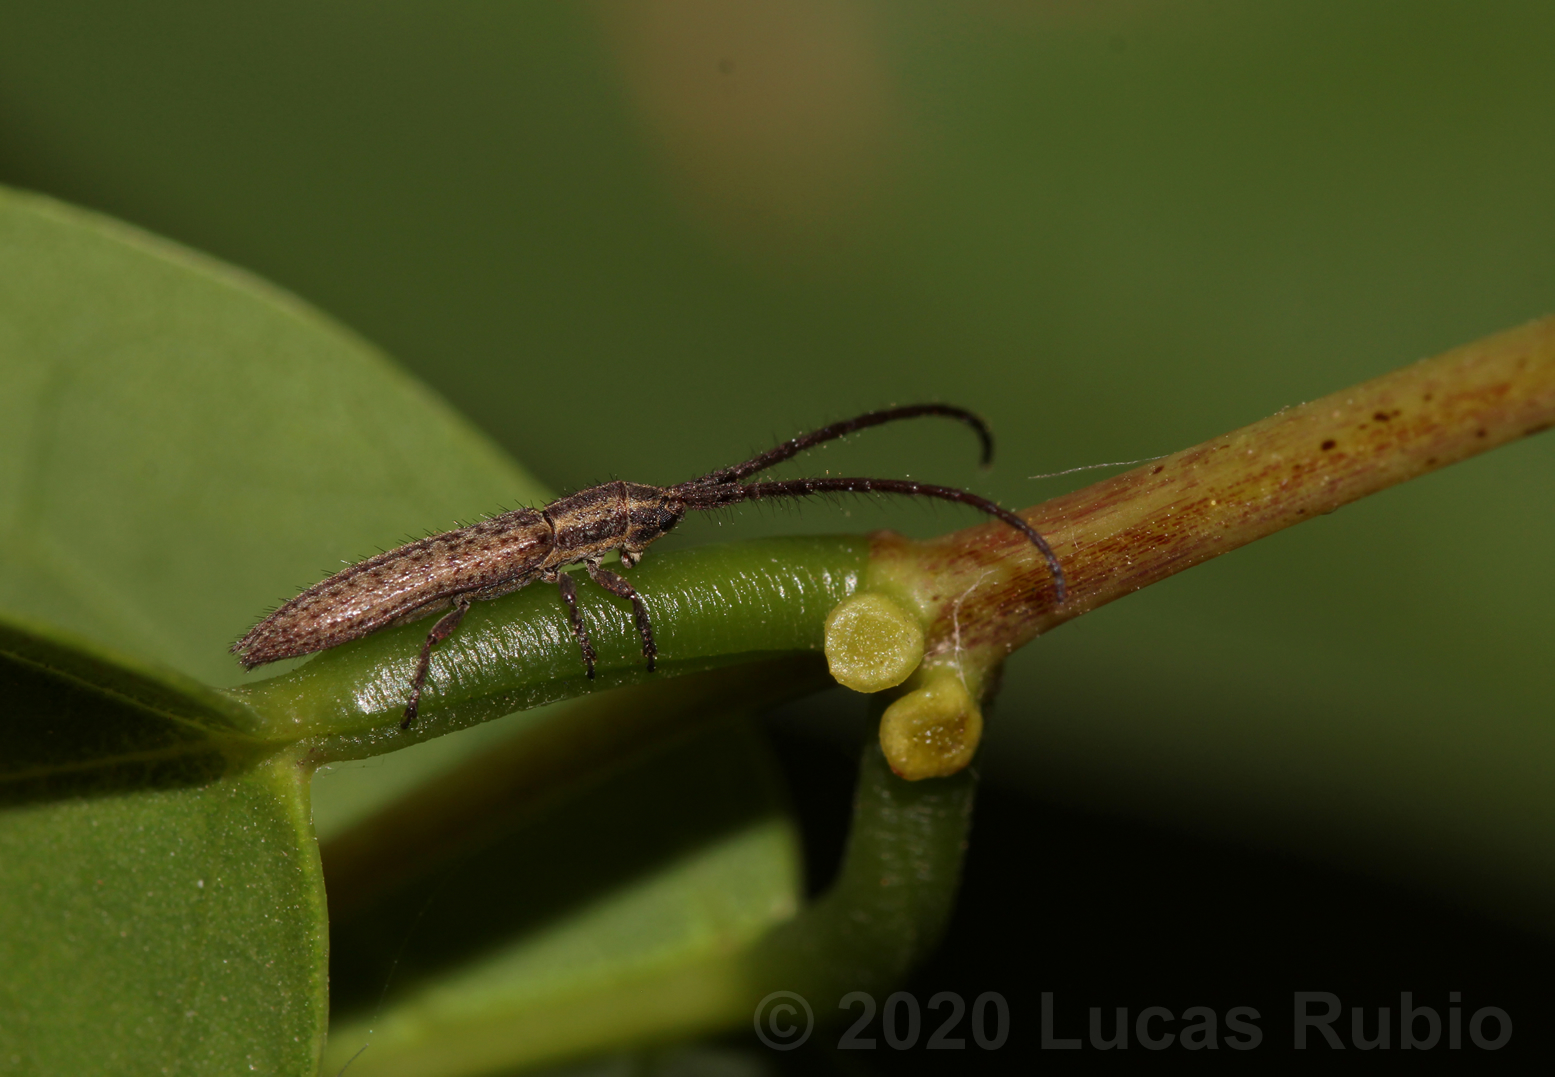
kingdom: Animalia
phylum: Arthropoda
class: Insecta
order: Coleoptera
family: Cerambycidae
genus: Dorcasta
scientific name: Dorcasta implicata
